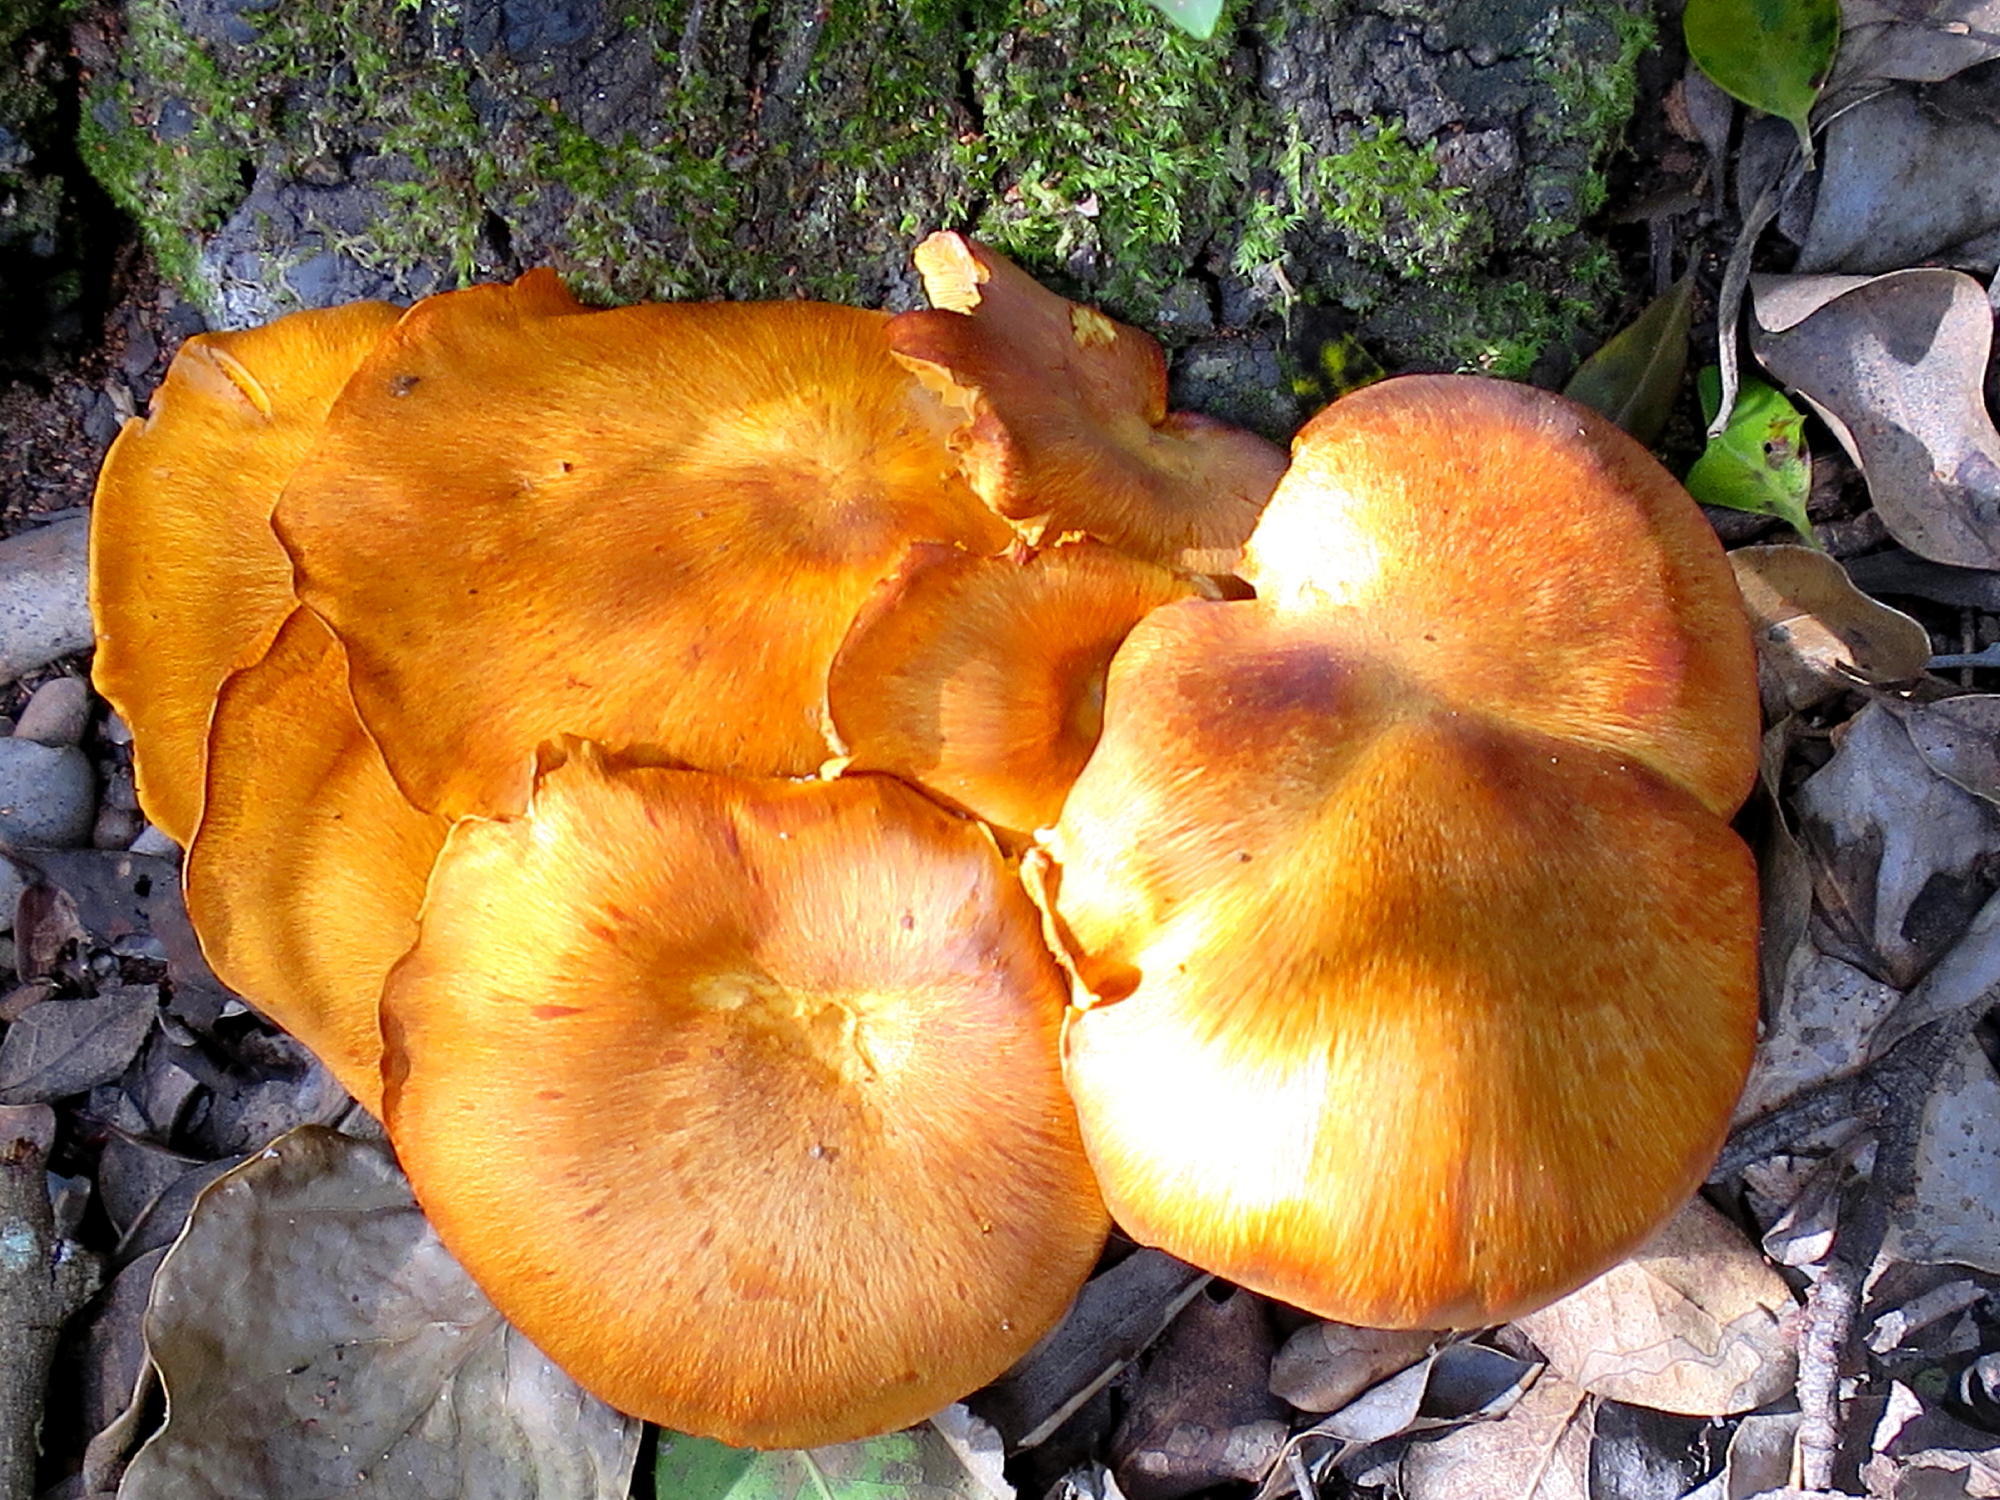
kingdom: Fungi
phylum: Basidiomycota
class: Agaricomycetes
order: Agaricales
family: Hymenogastraceae
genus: Gymnopilus
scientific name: Gymnopilus junonius
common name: Spectacular rustgill
